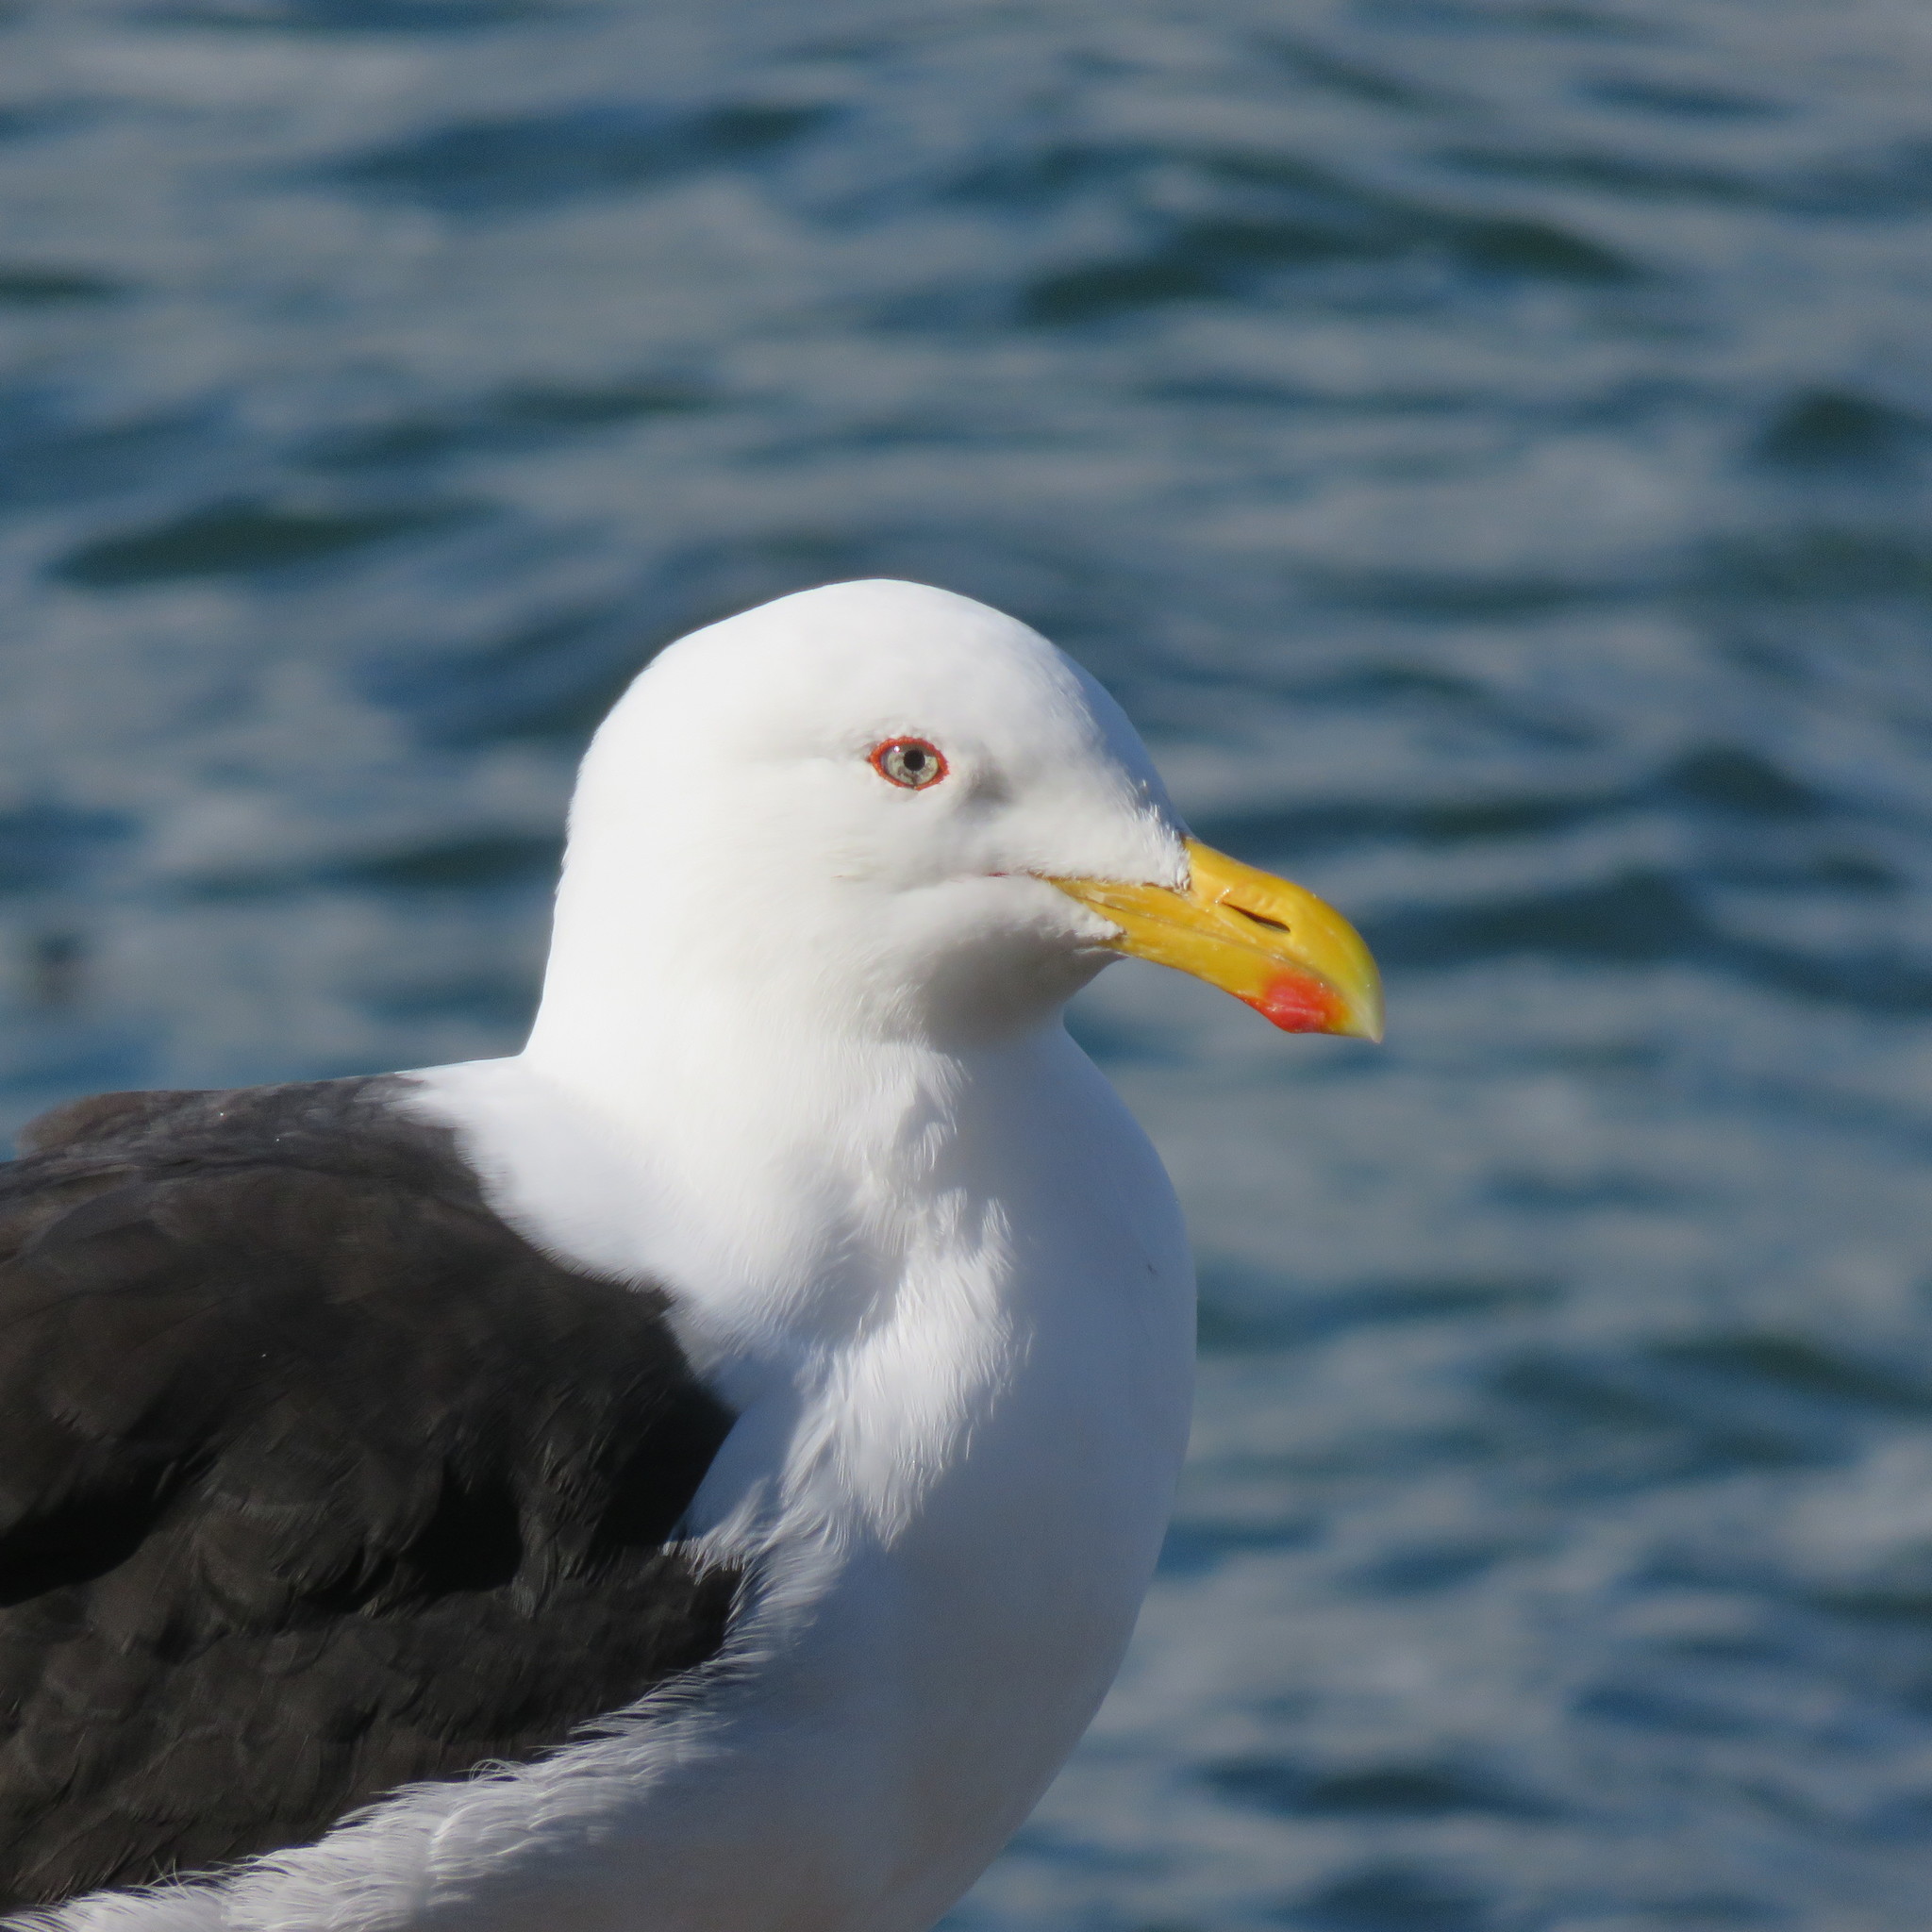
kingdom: Animalia
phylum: Chordata
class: Aves
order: Charadriiformes
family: Laridae
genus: Larus
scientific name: Larus dominicanus
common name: Kelp gull
